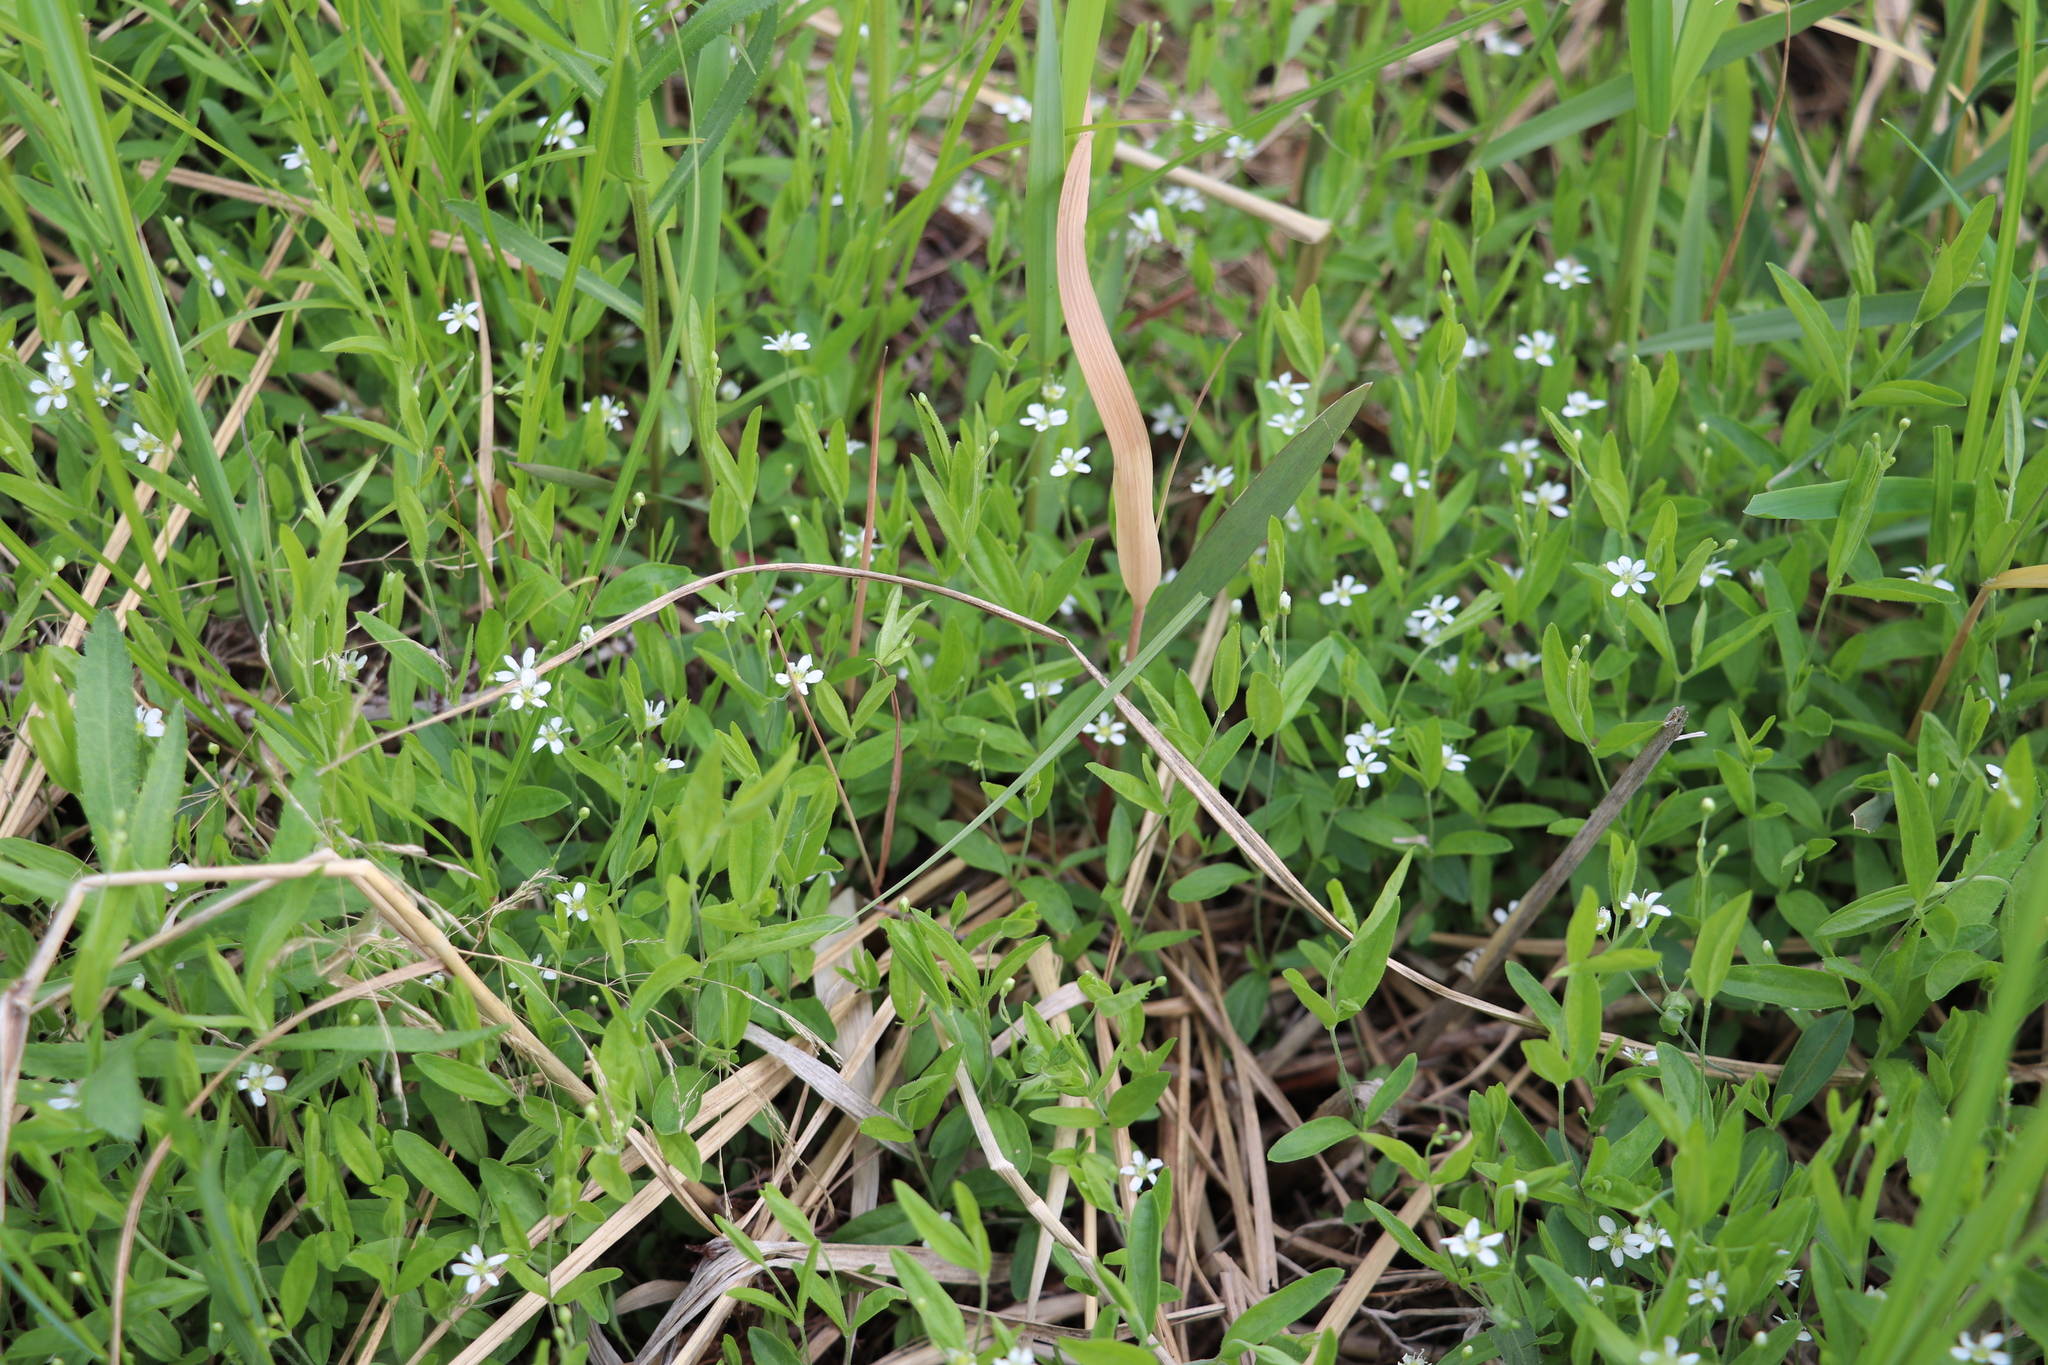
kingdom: Plantae
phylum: Tracheophyta
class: Magnoliopsida
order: Caryophyllales
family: Caryophyllaceae
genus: Moehringia
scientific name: Moehringia lateriflora
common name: Blunt-leaved sandwort
